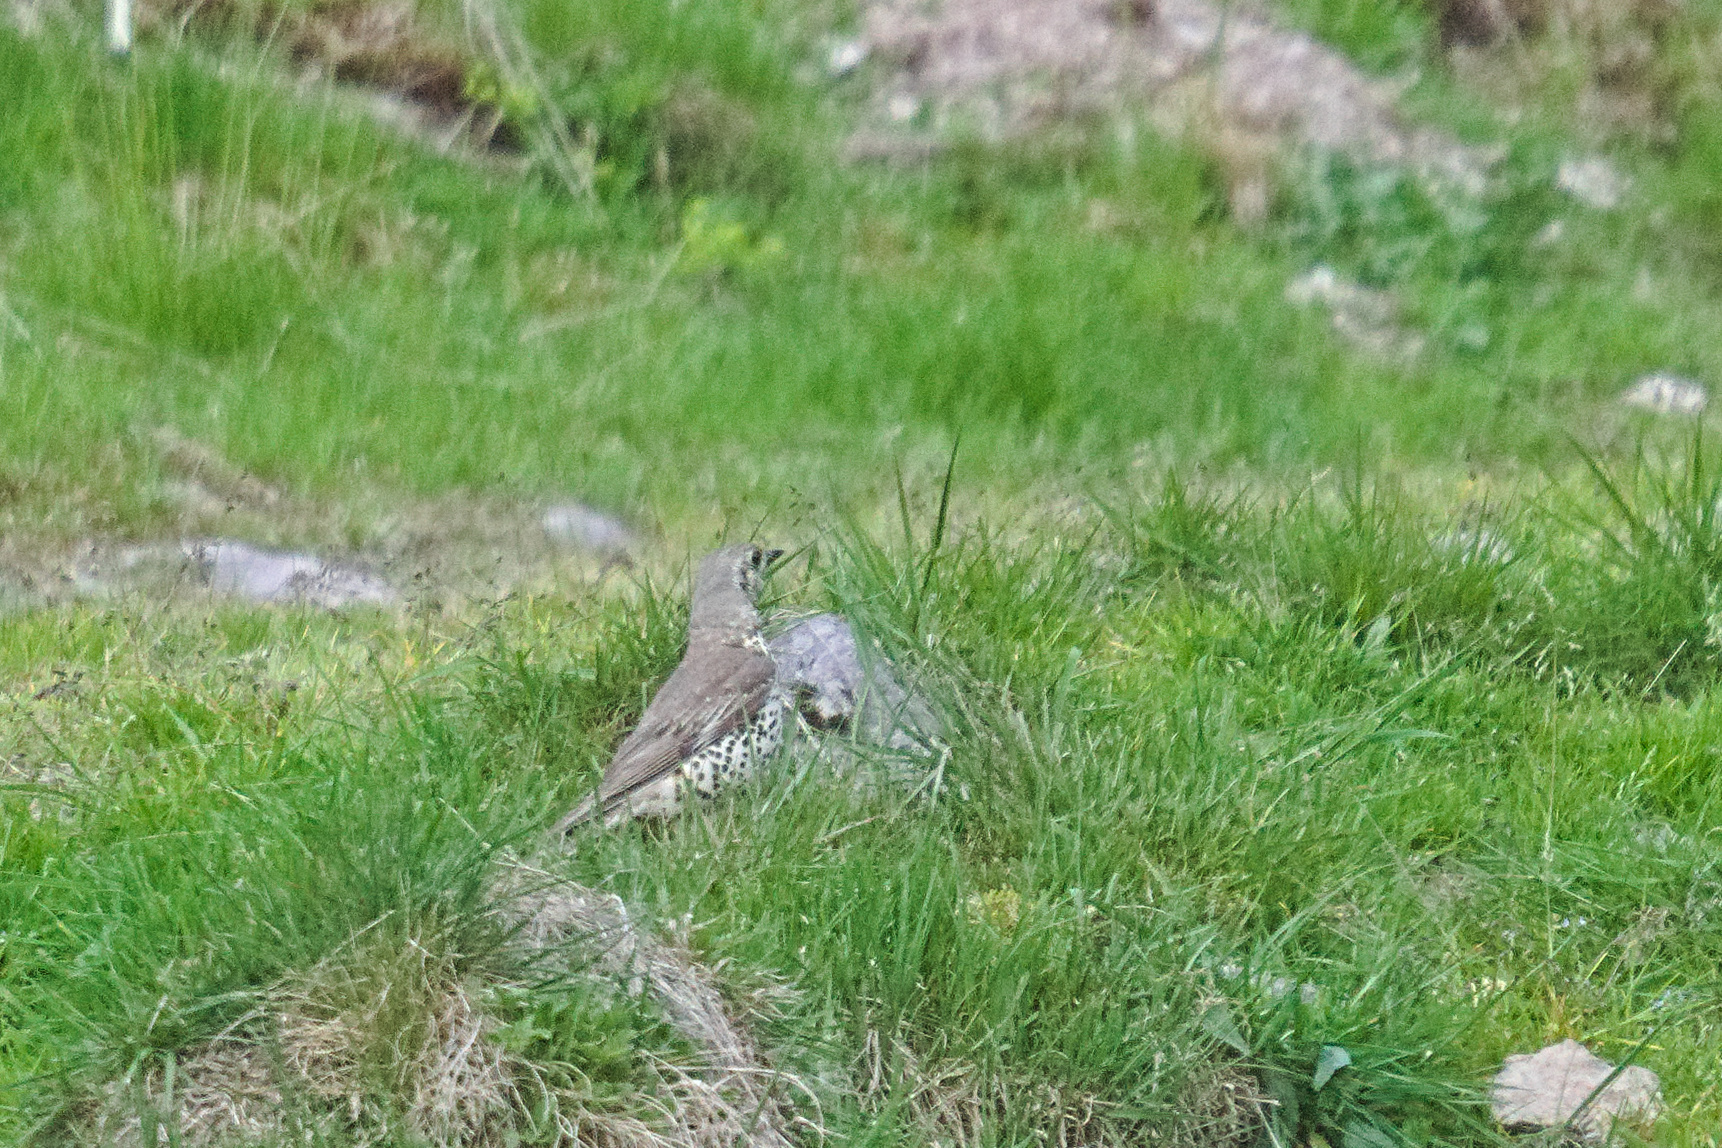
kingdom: Animalia
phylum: Chordata
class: Aves
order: Passeriformes
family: Turdidae
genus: Turdus
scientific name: Turdus viscivorus
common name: Mistle thrush
